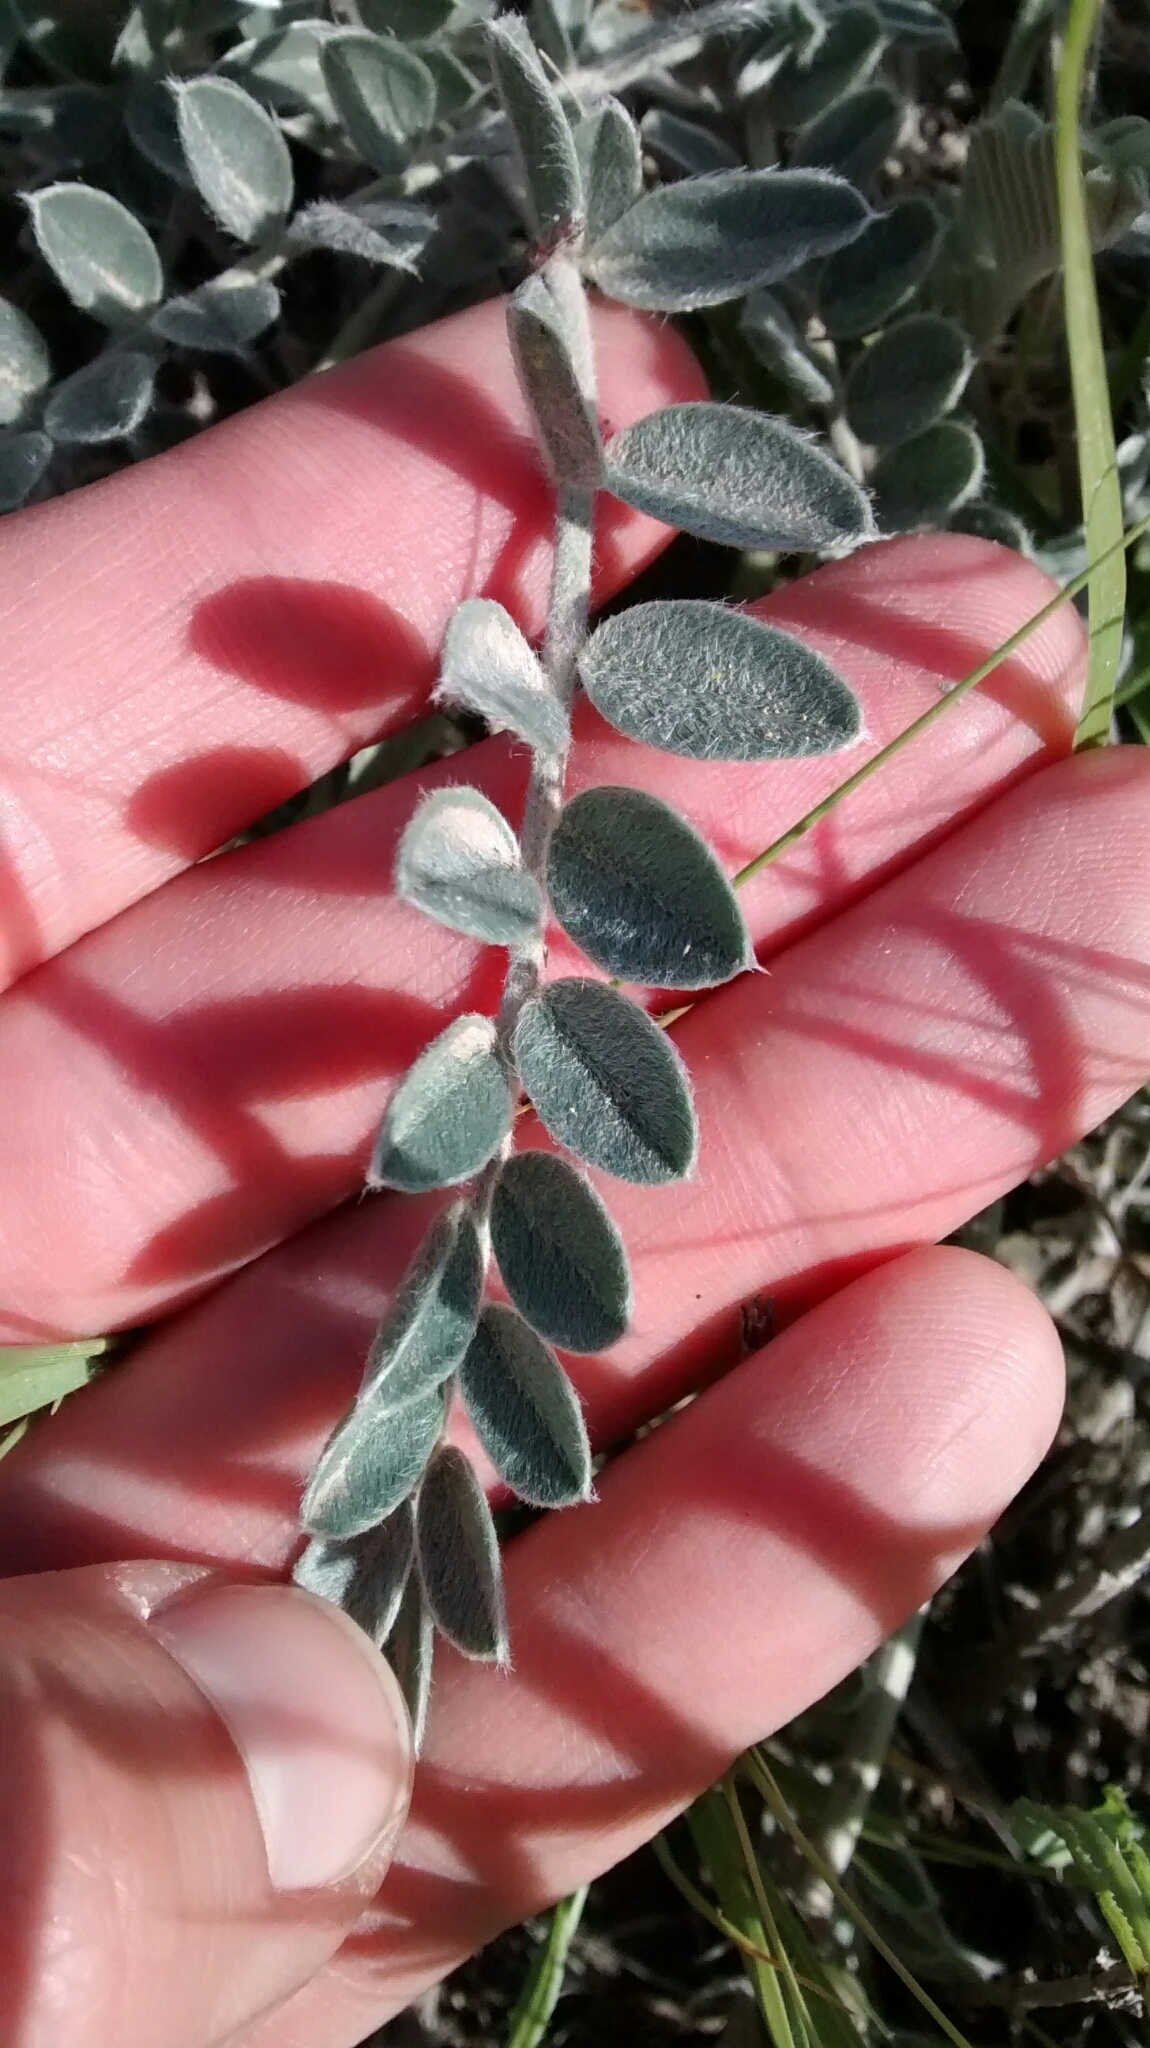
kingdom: Plantae
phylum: Tracheophyta
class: Magnoliopsida
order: Fabales
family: Fabaceae
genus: Astragalus
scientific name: Astragalus mollissimus
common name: Woolly locoweed
